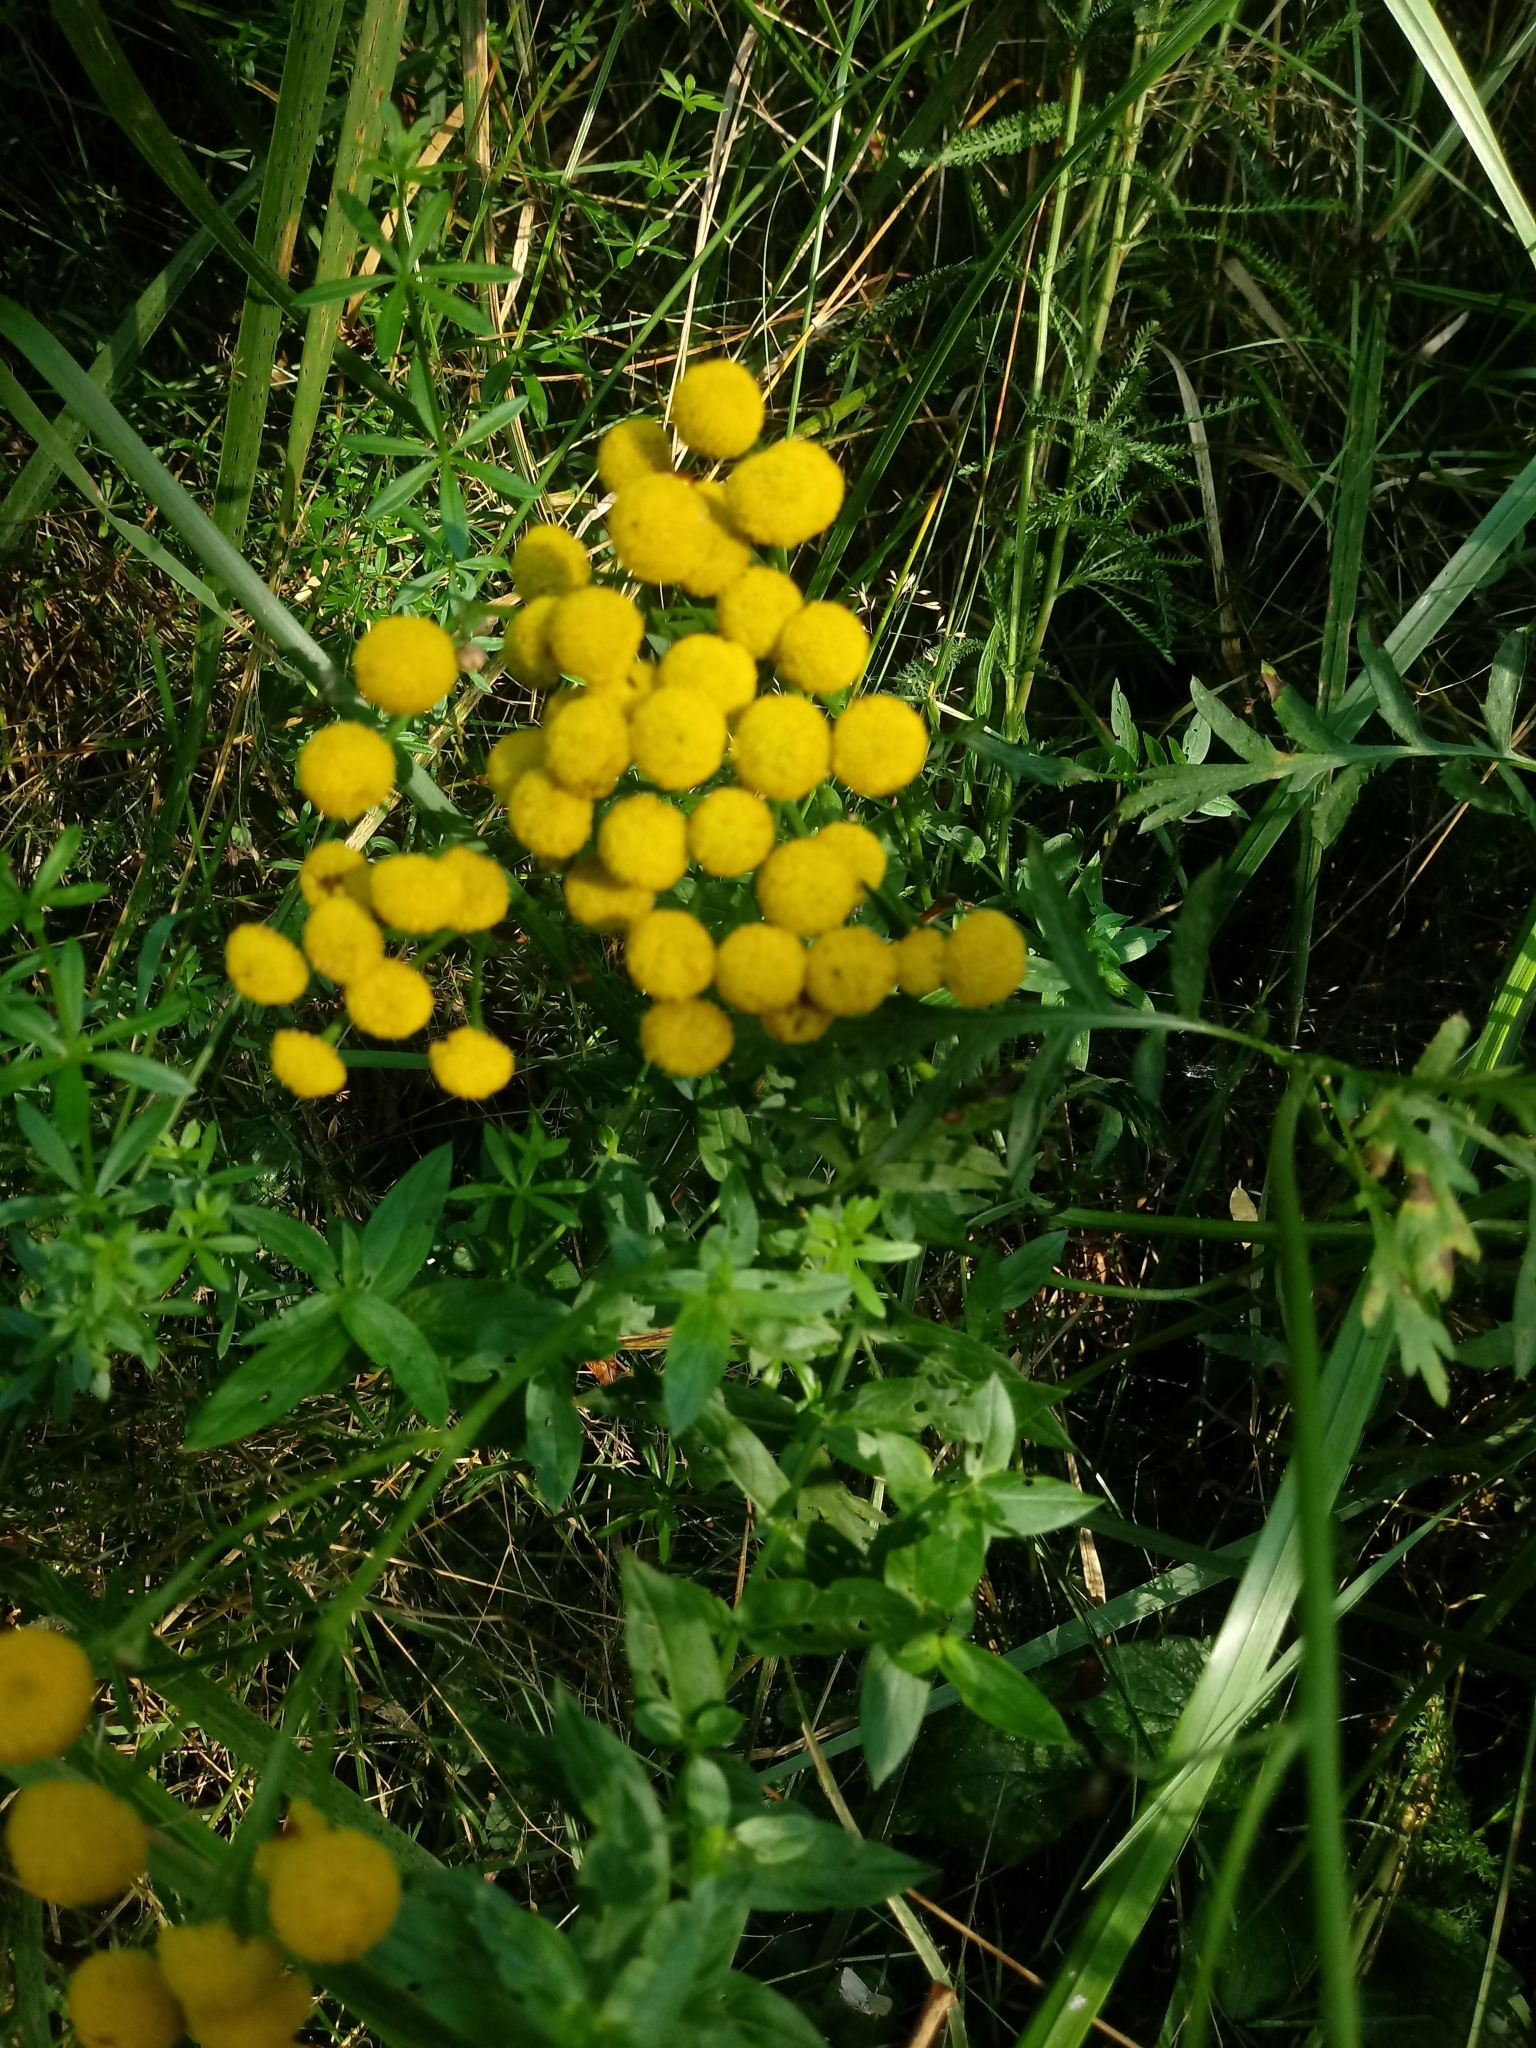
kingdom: Plantae
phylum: Tracheophyta
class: Magnoliopsida
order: Asterales
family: Asteraceae
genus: Tanacetum
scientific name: Tanacetum vulgare
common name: Common tansy
